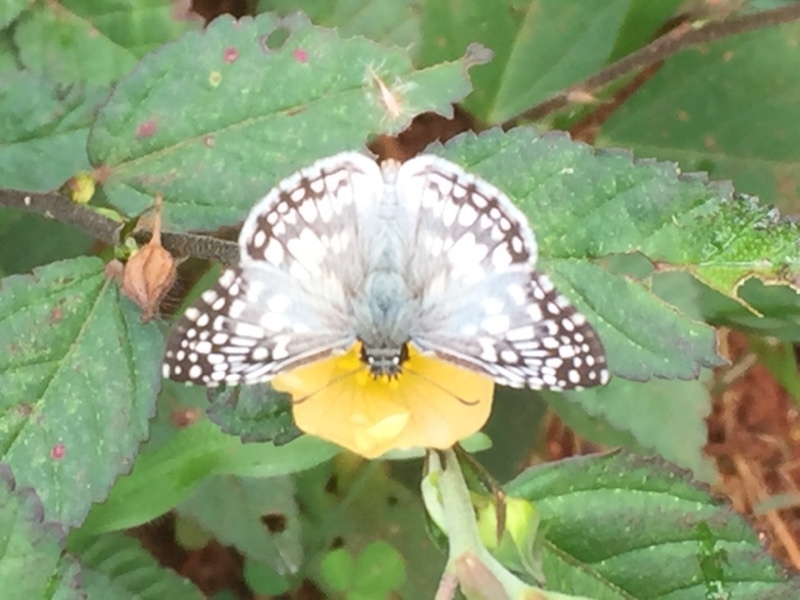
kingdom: Animalia
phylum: Arthropoda
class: Insecta
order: Lepidoptera
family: Hesperiidae
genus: Pyrgus
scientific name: Pyrgus oileus
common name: Tropical checkered-skipper
